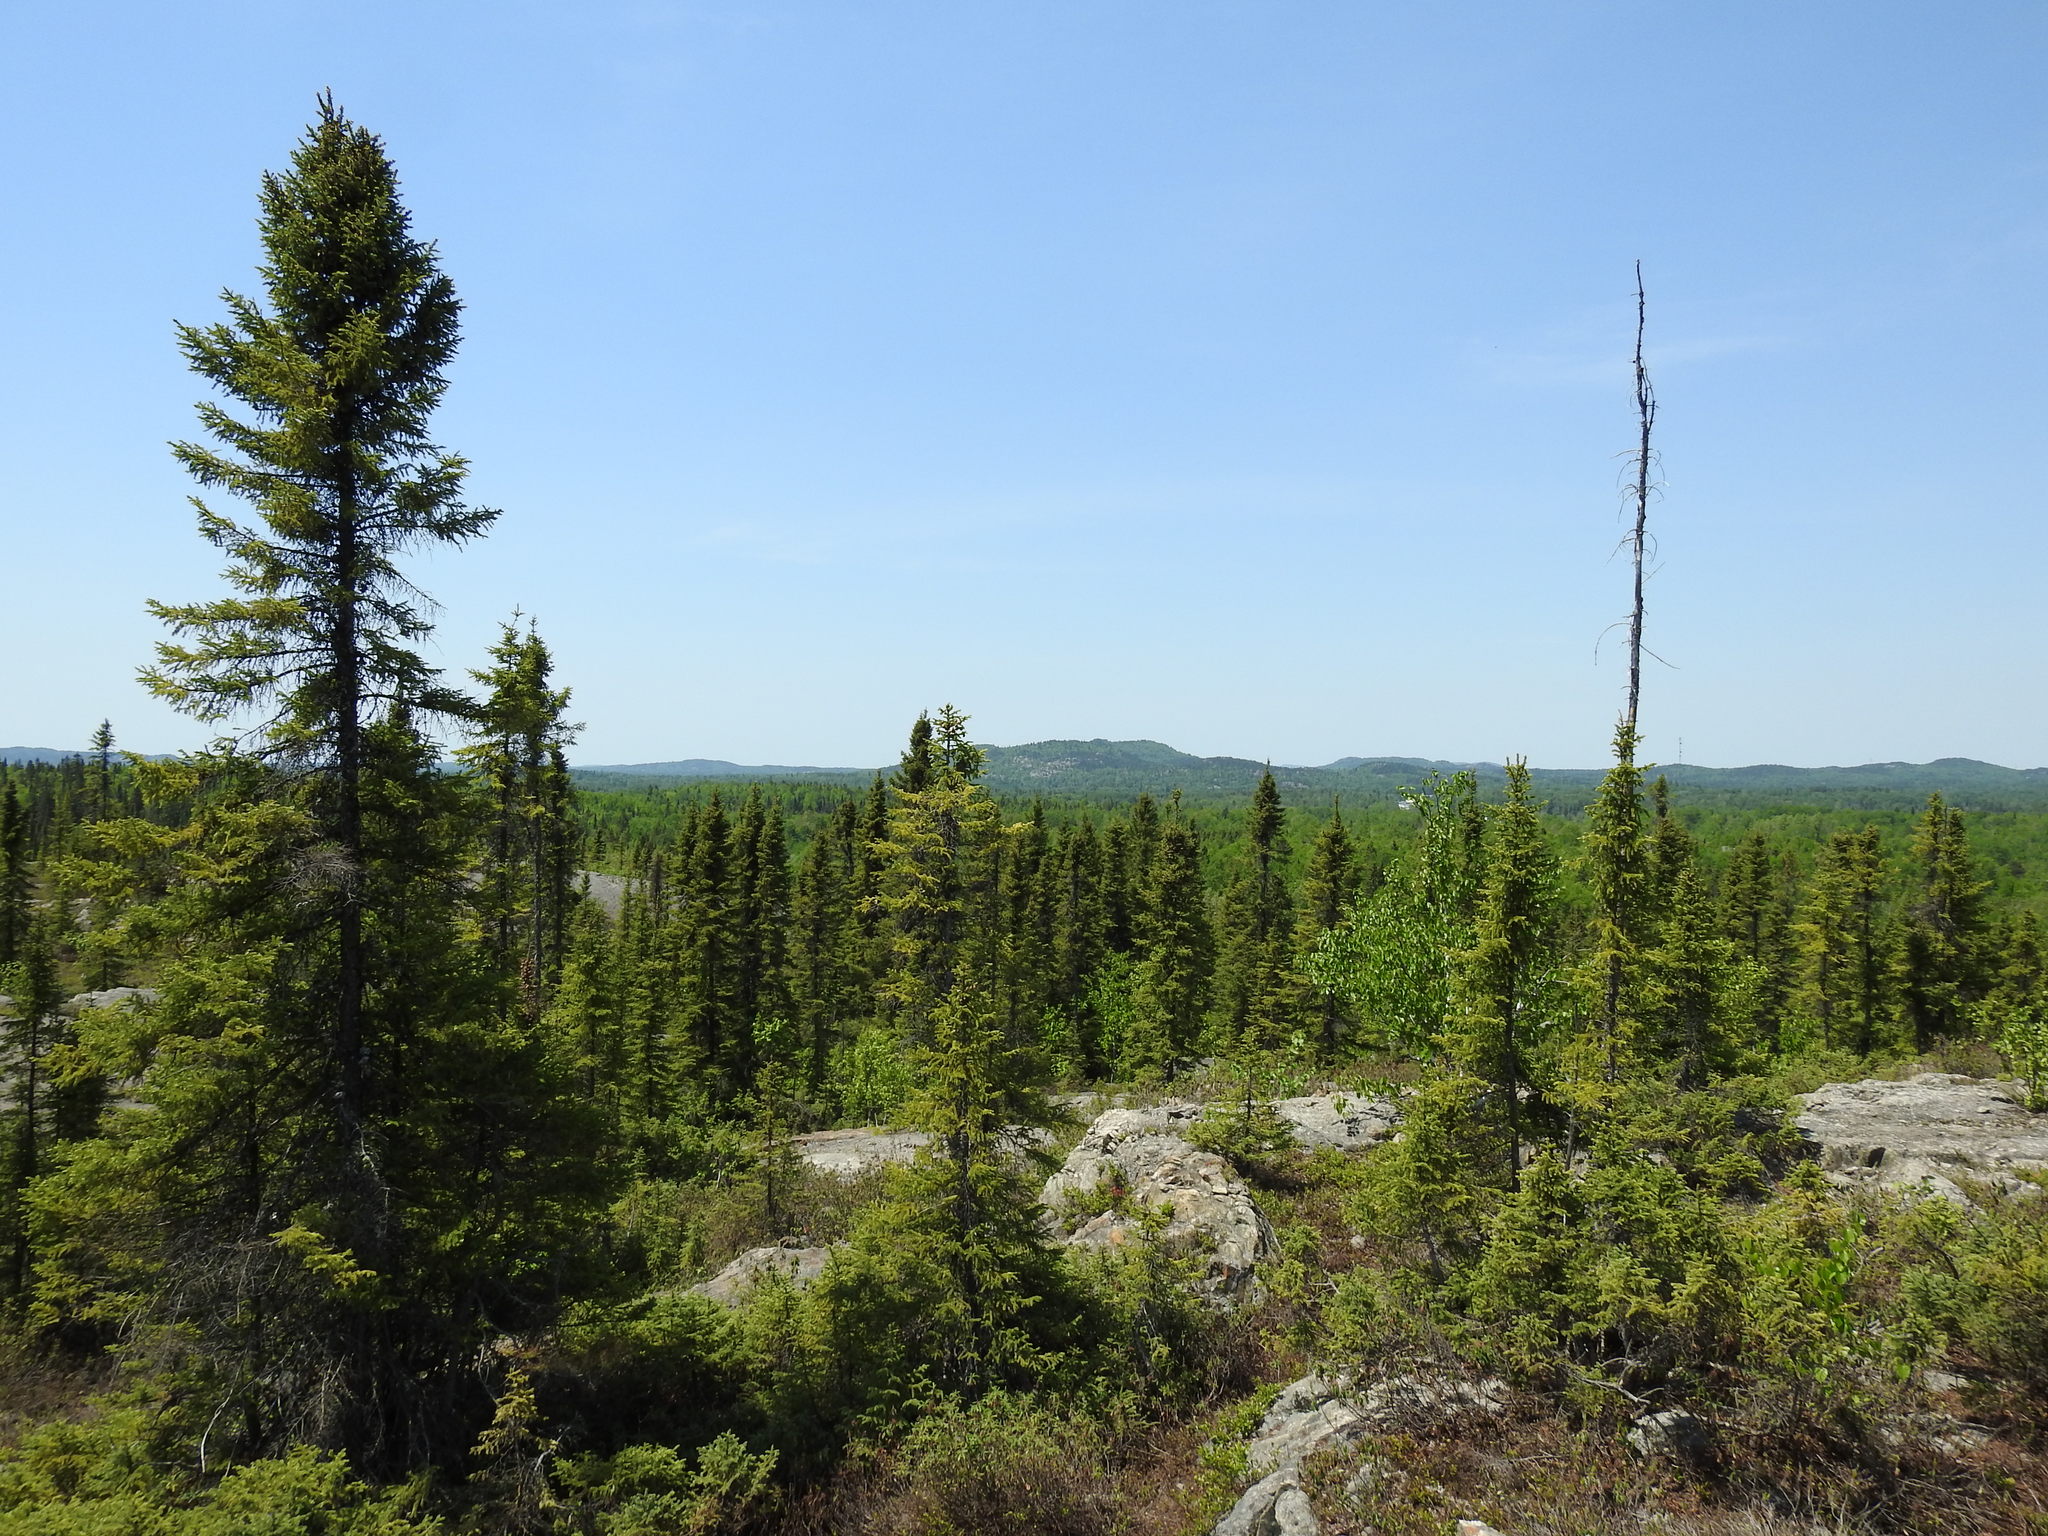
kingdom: Plantae
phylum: Tracheophyta
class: Pinopsida
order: Pinales
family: Pinaceae
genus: Picea
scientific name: Picea mariana
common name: Black spruce
